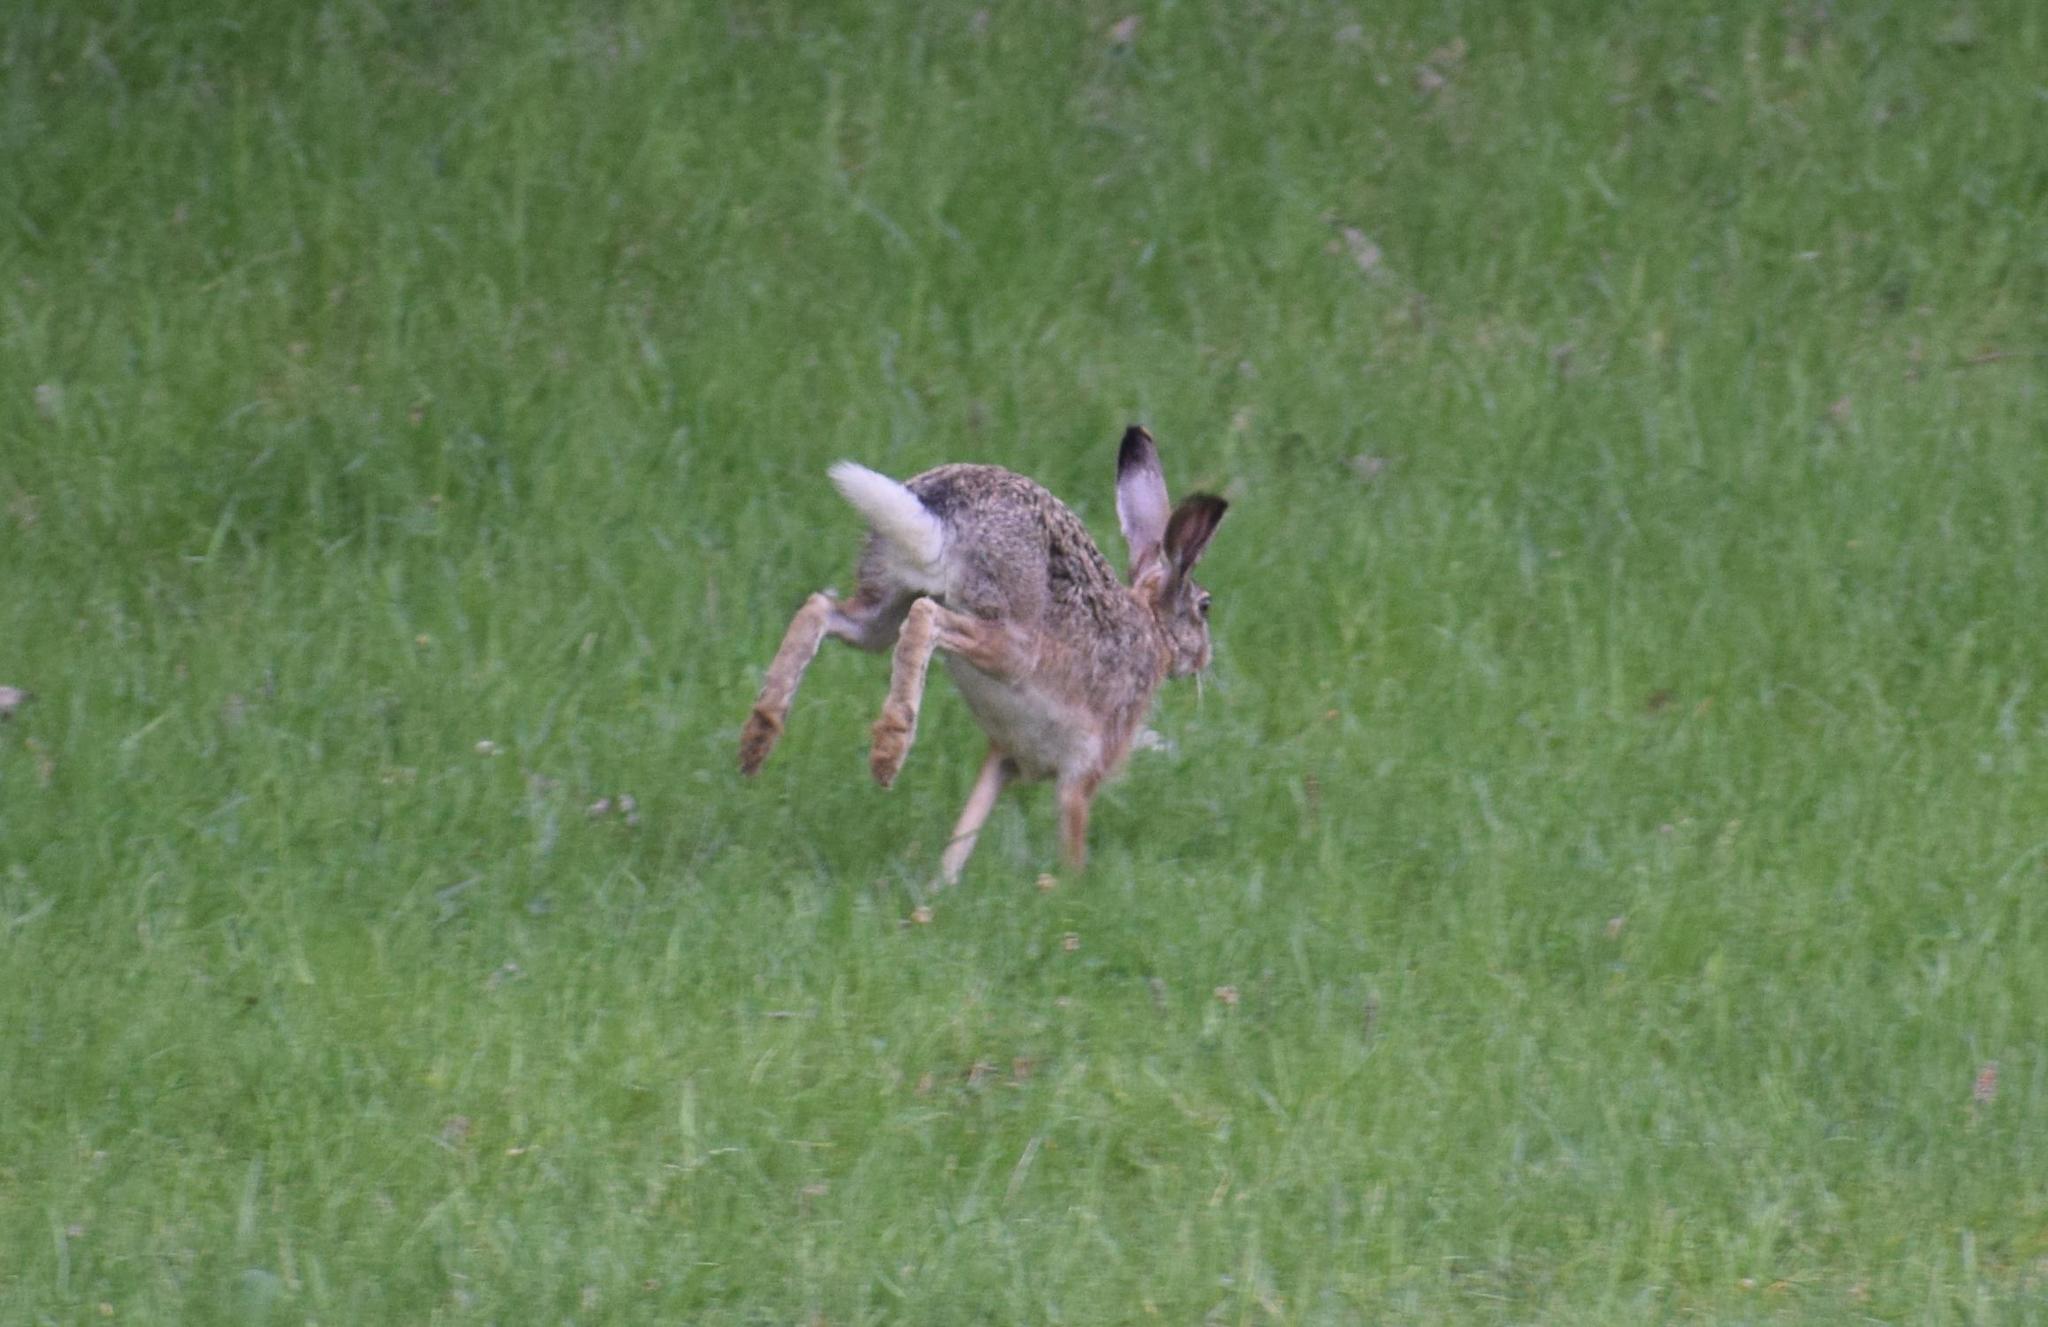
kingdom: Animalia
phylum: Chordata
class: Mammalia
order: Lagomorpha
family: Leporidae
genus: Lepus
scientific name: Lepus europaeus
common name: European hare
